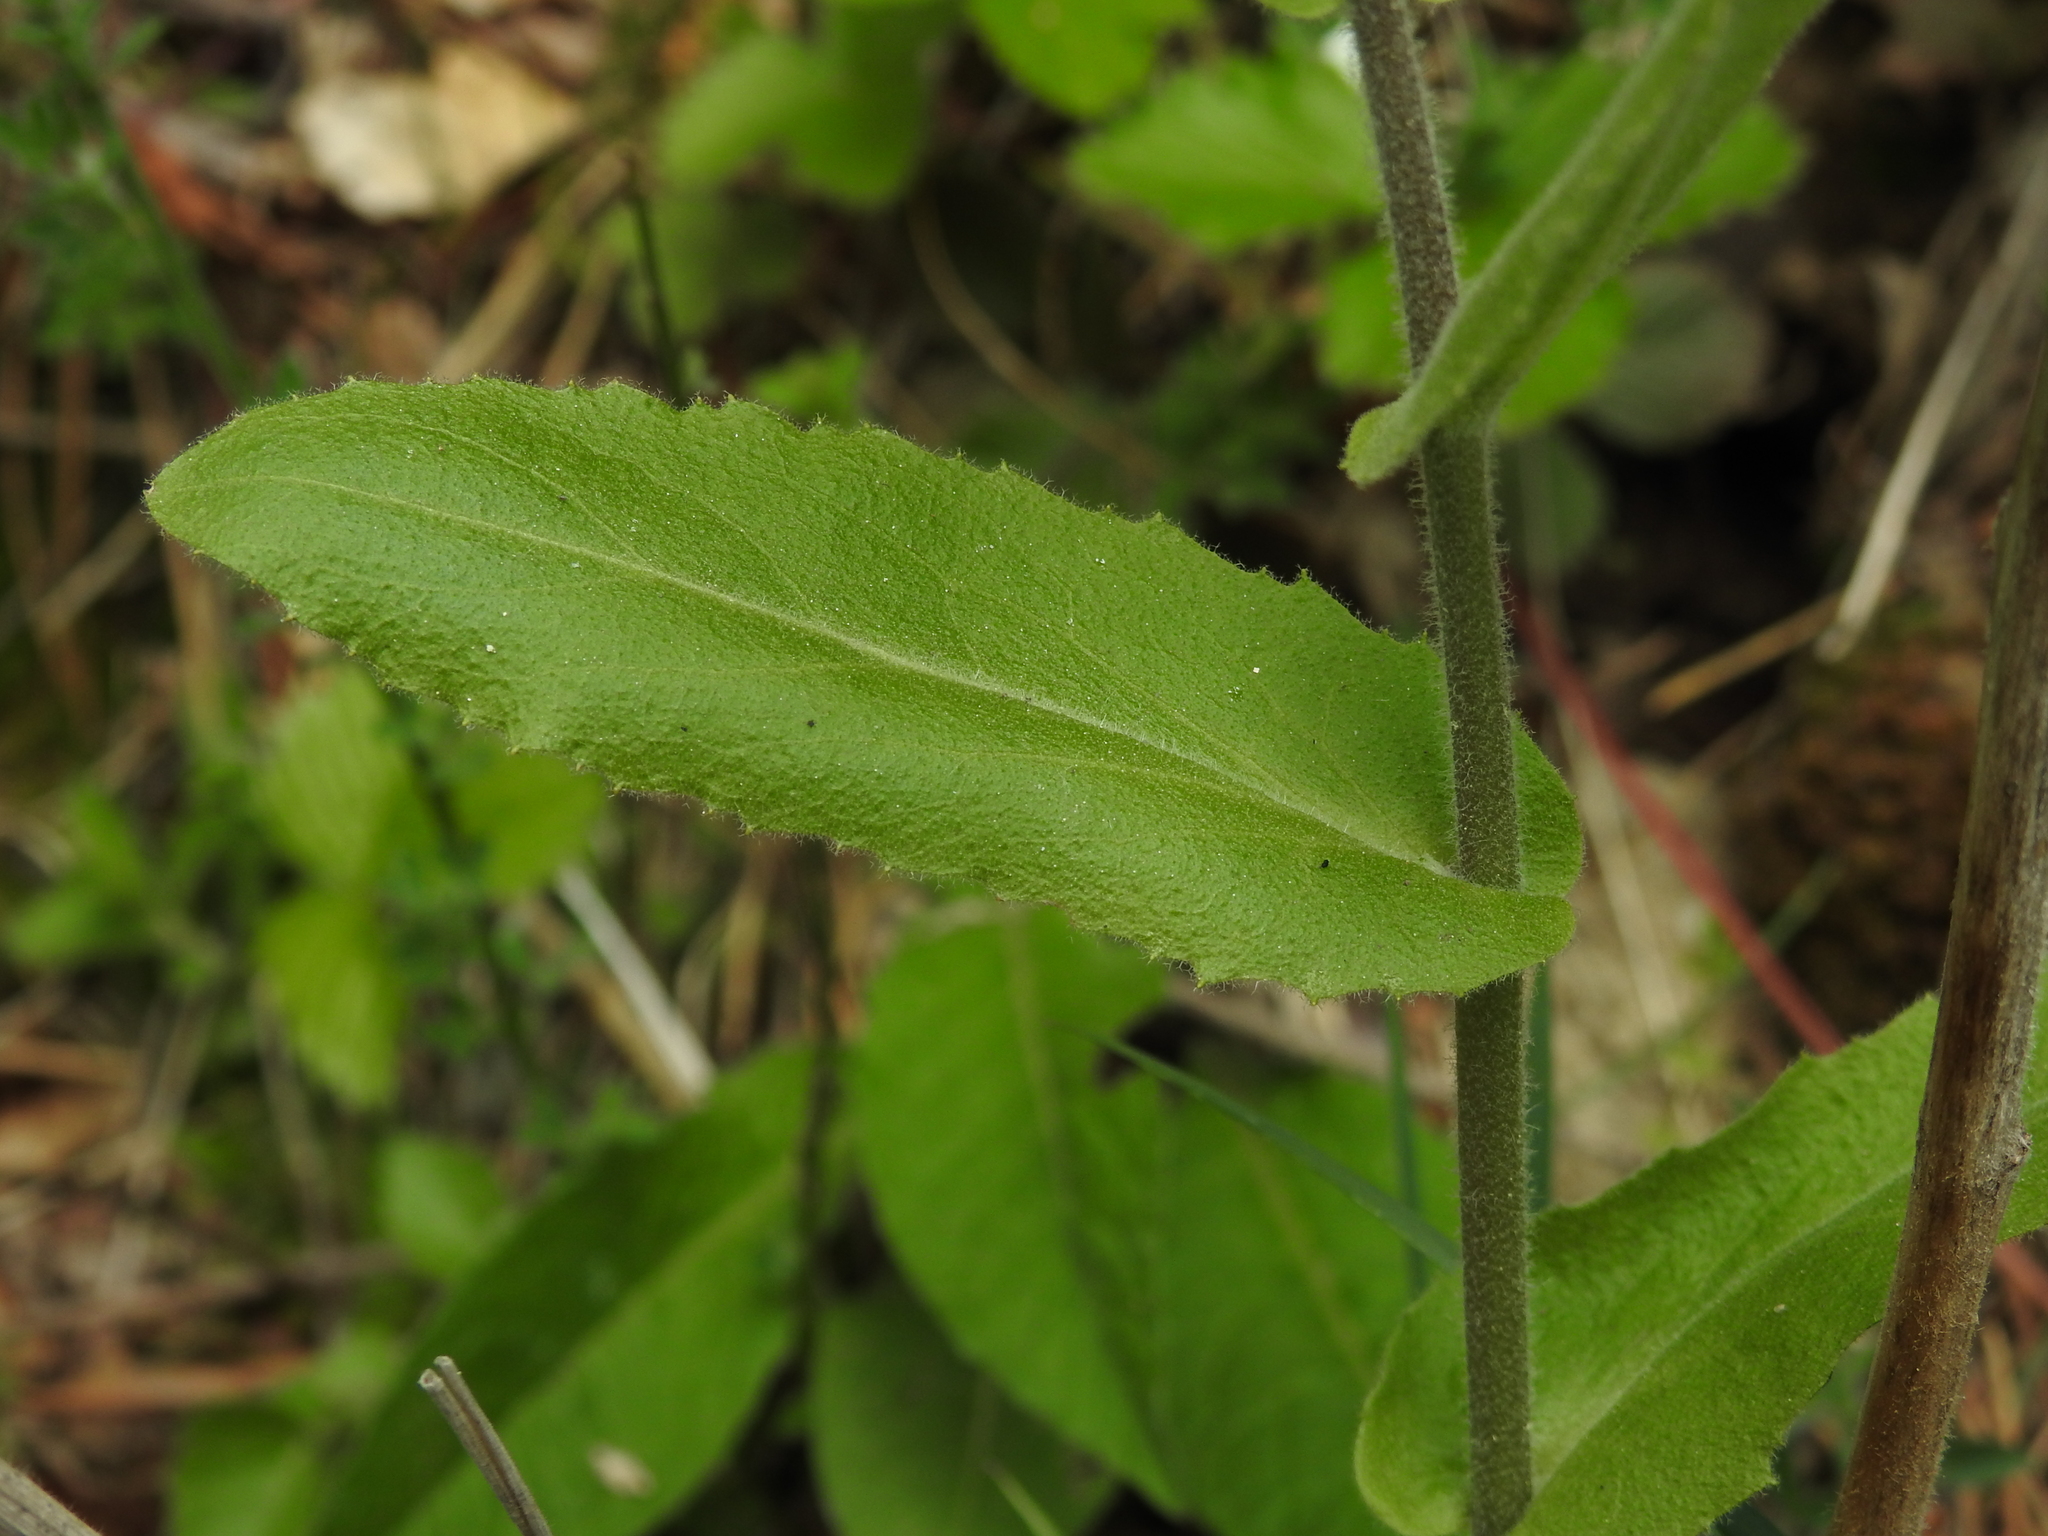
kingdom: Plantae
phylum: Tracheophyta
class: Magnoliopsida
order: Brassicales
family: Brassicaceae
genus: Pseudoturritis
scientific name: Pseudoturritis turrita
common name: Tower cress
